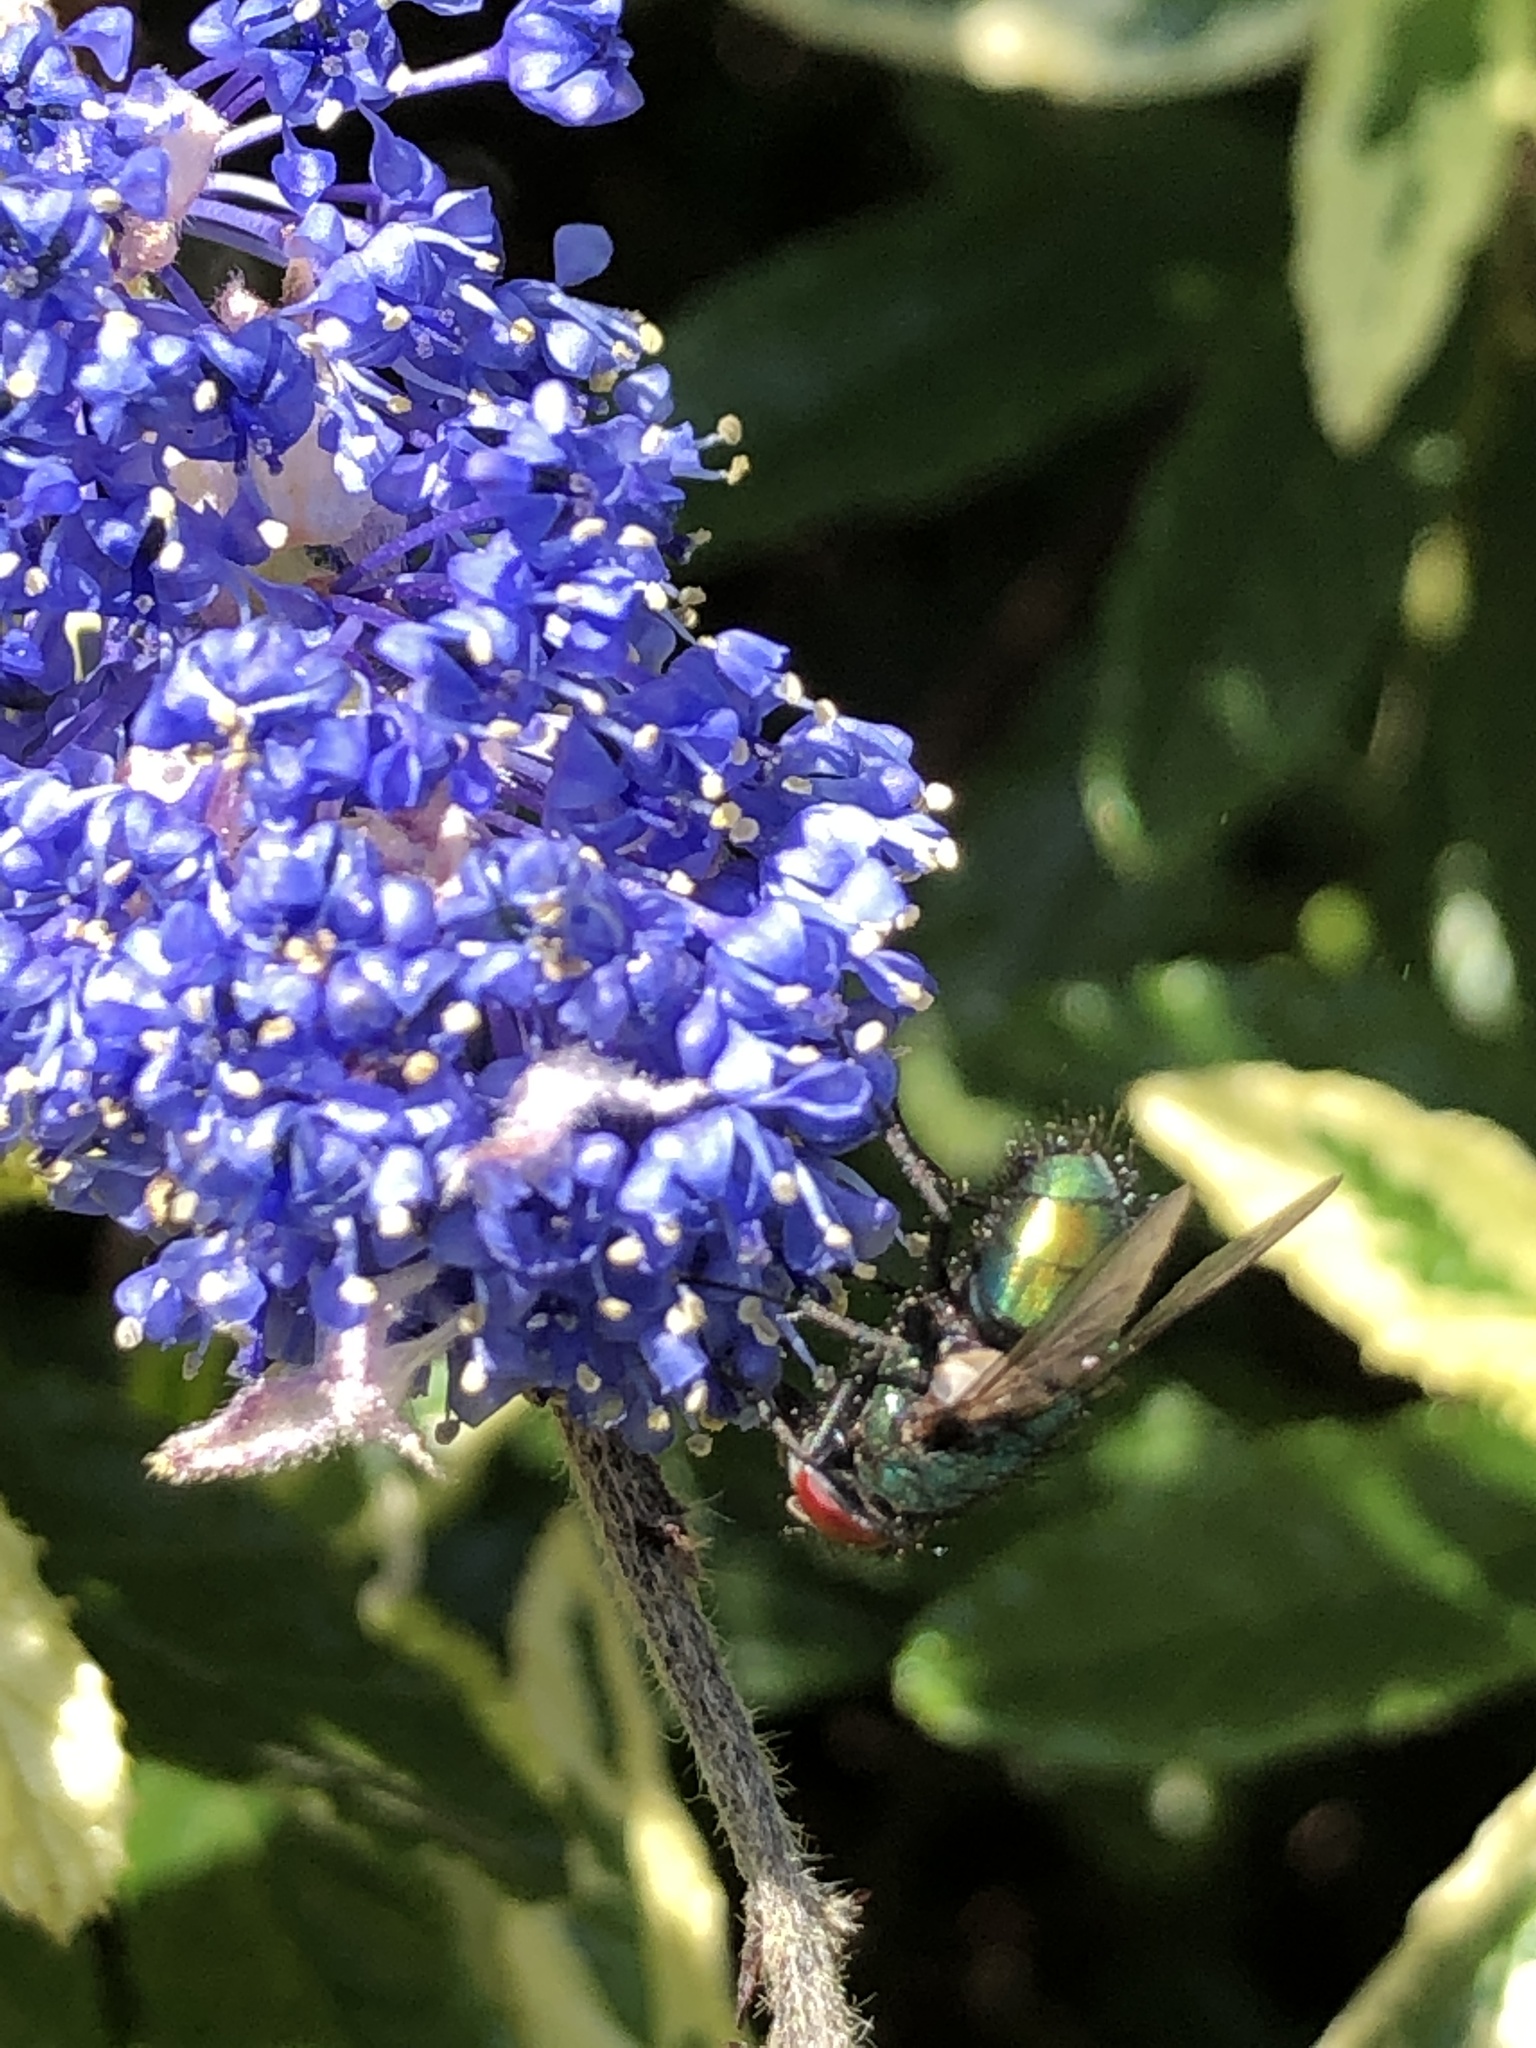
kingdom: Animalia
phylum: Arthropoda
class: Insecta
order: Diptera
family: Calliphoridae
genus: Lucilia
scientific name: Lucilia
